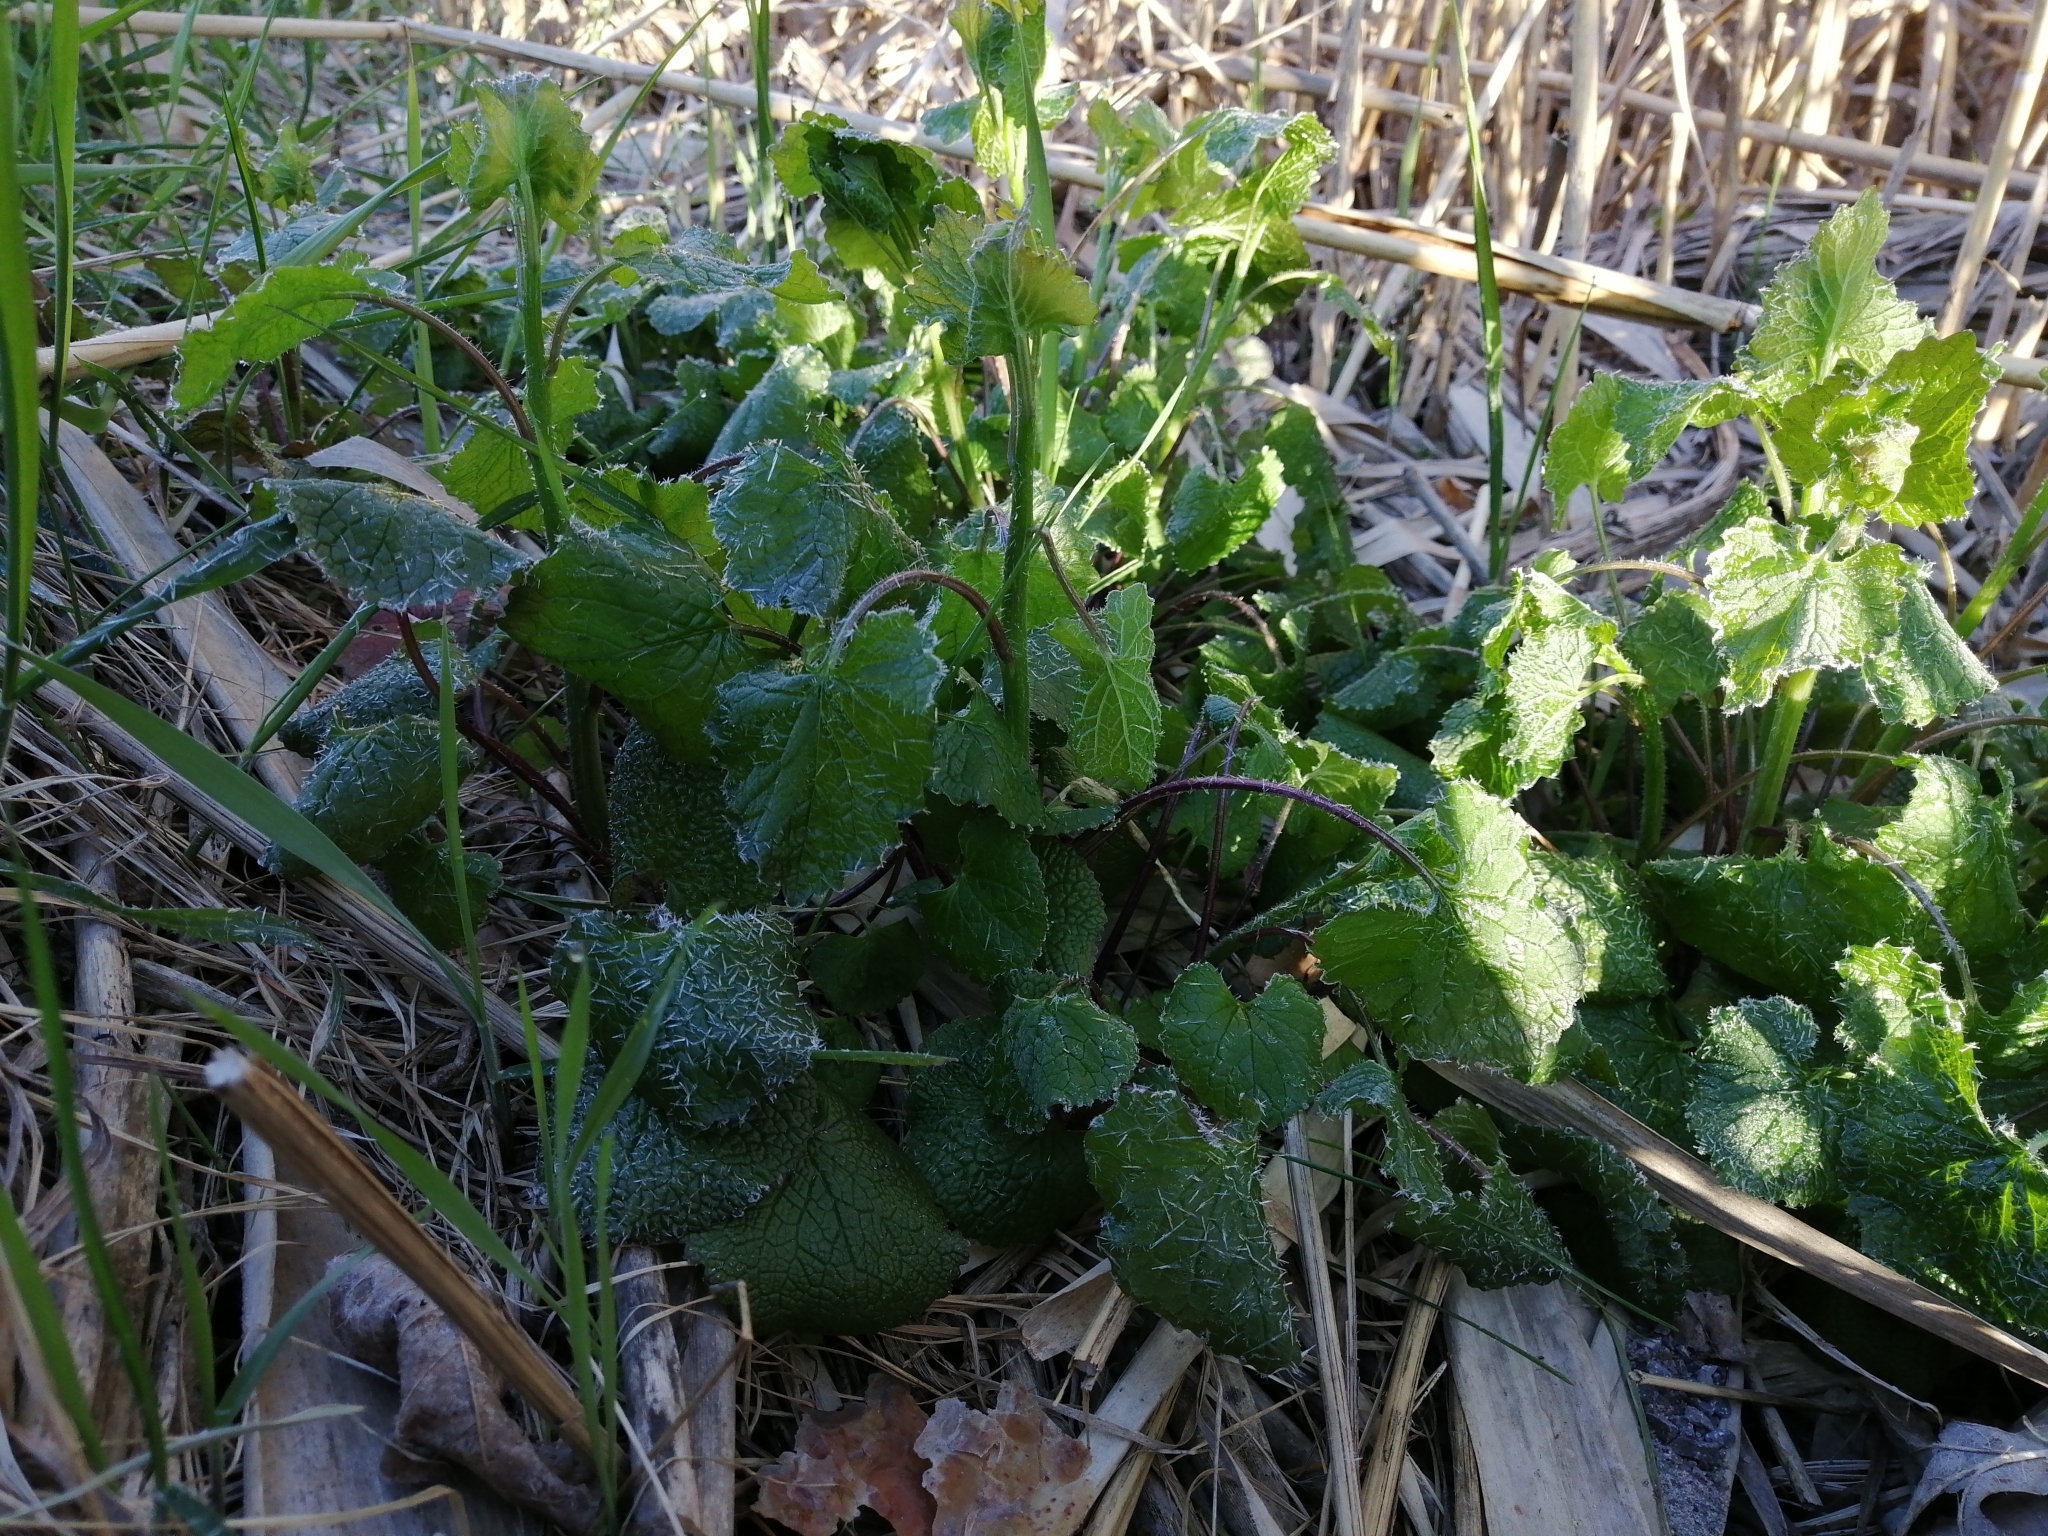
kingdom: Plantae
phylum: Tracheophyta
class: Magnoliopsida
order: Brassicales
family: Brassicaceae
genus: Alliaria
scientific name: Alliaria petiolata
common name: Garlic mustard
